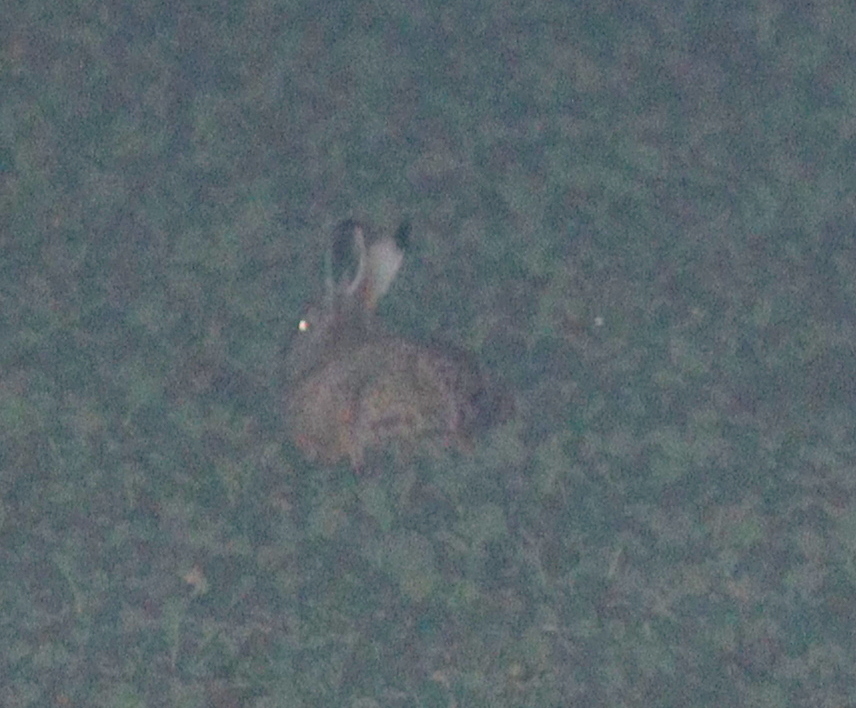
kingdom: Animalia
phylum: Chordata
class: Mammalia
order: Lagomorpha
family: Leporidae
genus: Lepus
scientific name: Lepus europaeus
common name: European hare
